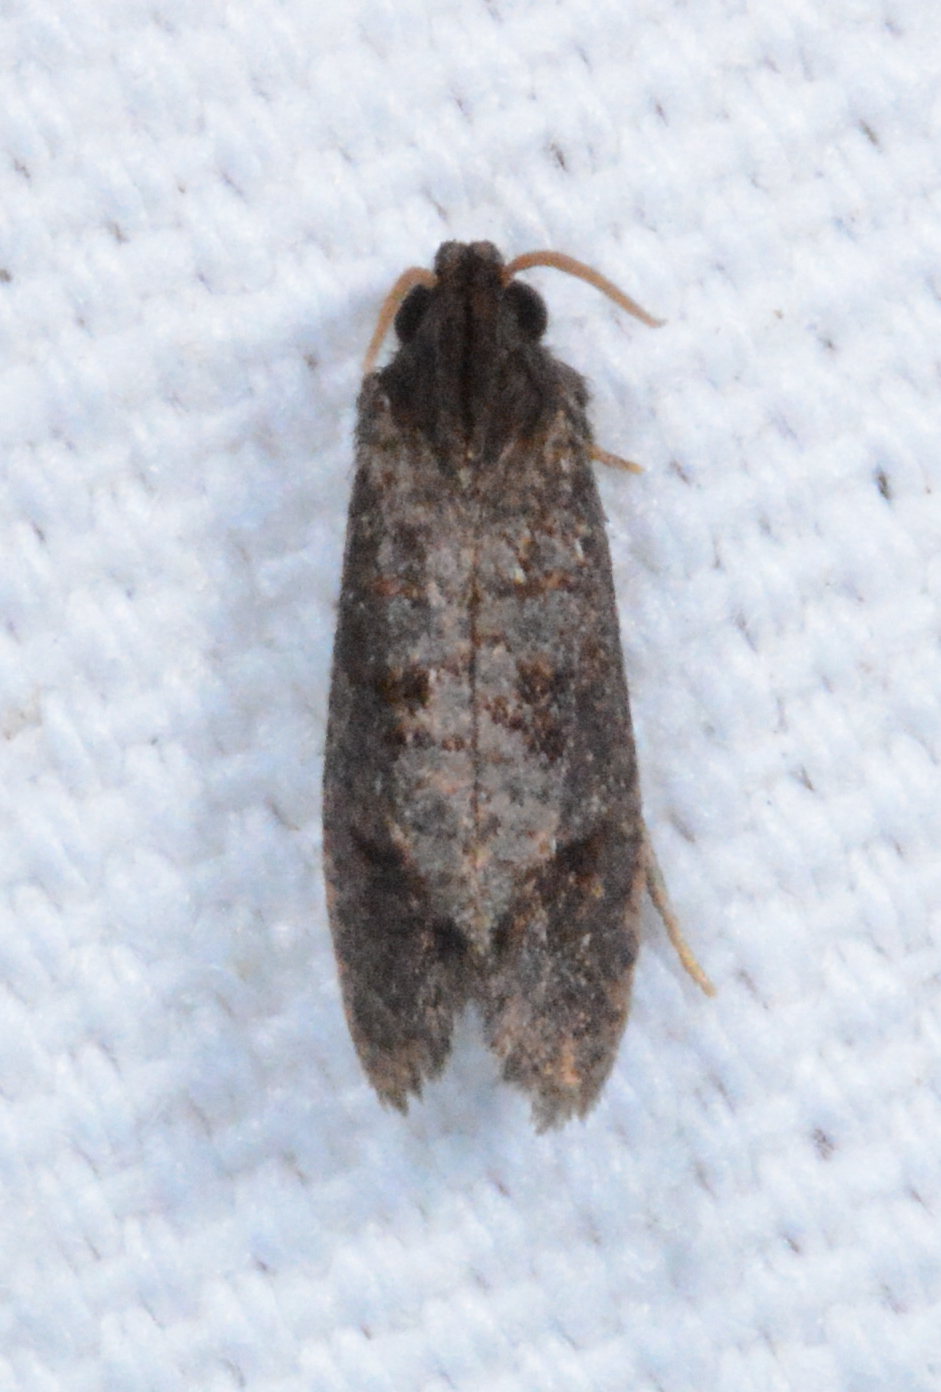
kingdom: Animalia
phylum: Arthropoda
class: Insecta
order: Lepidoptera
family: Tineidae
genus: Acrolophus
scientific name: Acrolophus popeanella
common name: Clemens' grass tubeworm moth
